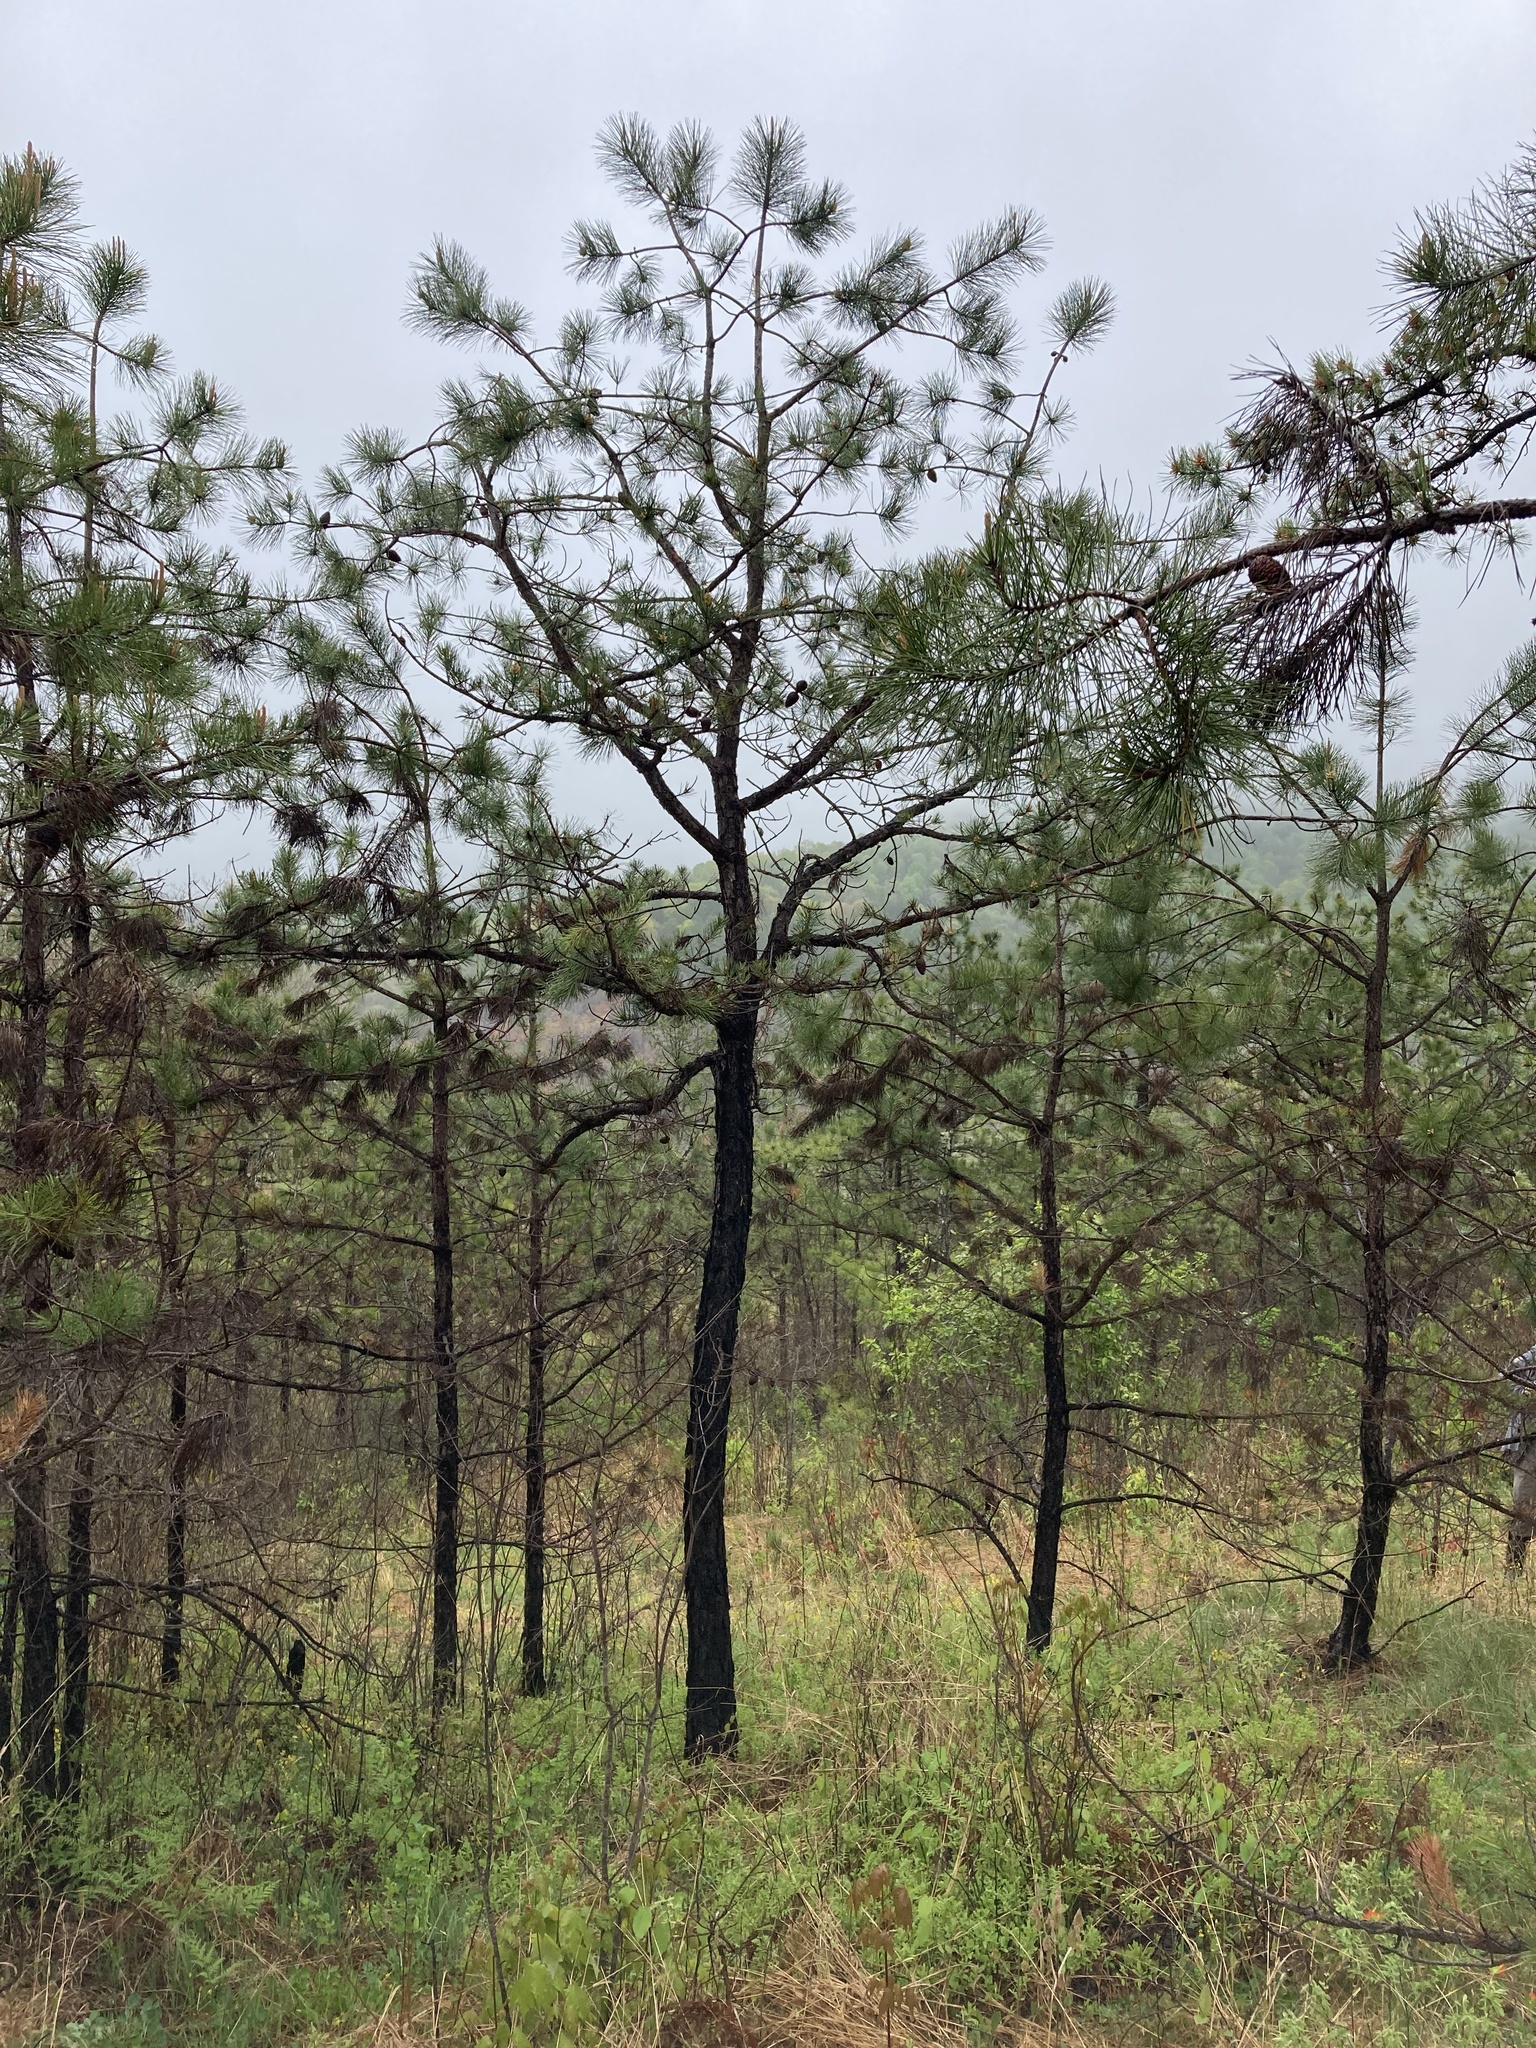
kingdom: Plantae
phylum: Tracheophyta
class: Pinopsida
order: Pinales
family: Pinaceae
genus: Pinus
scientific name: Pinus rigida
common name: Pitch pine
